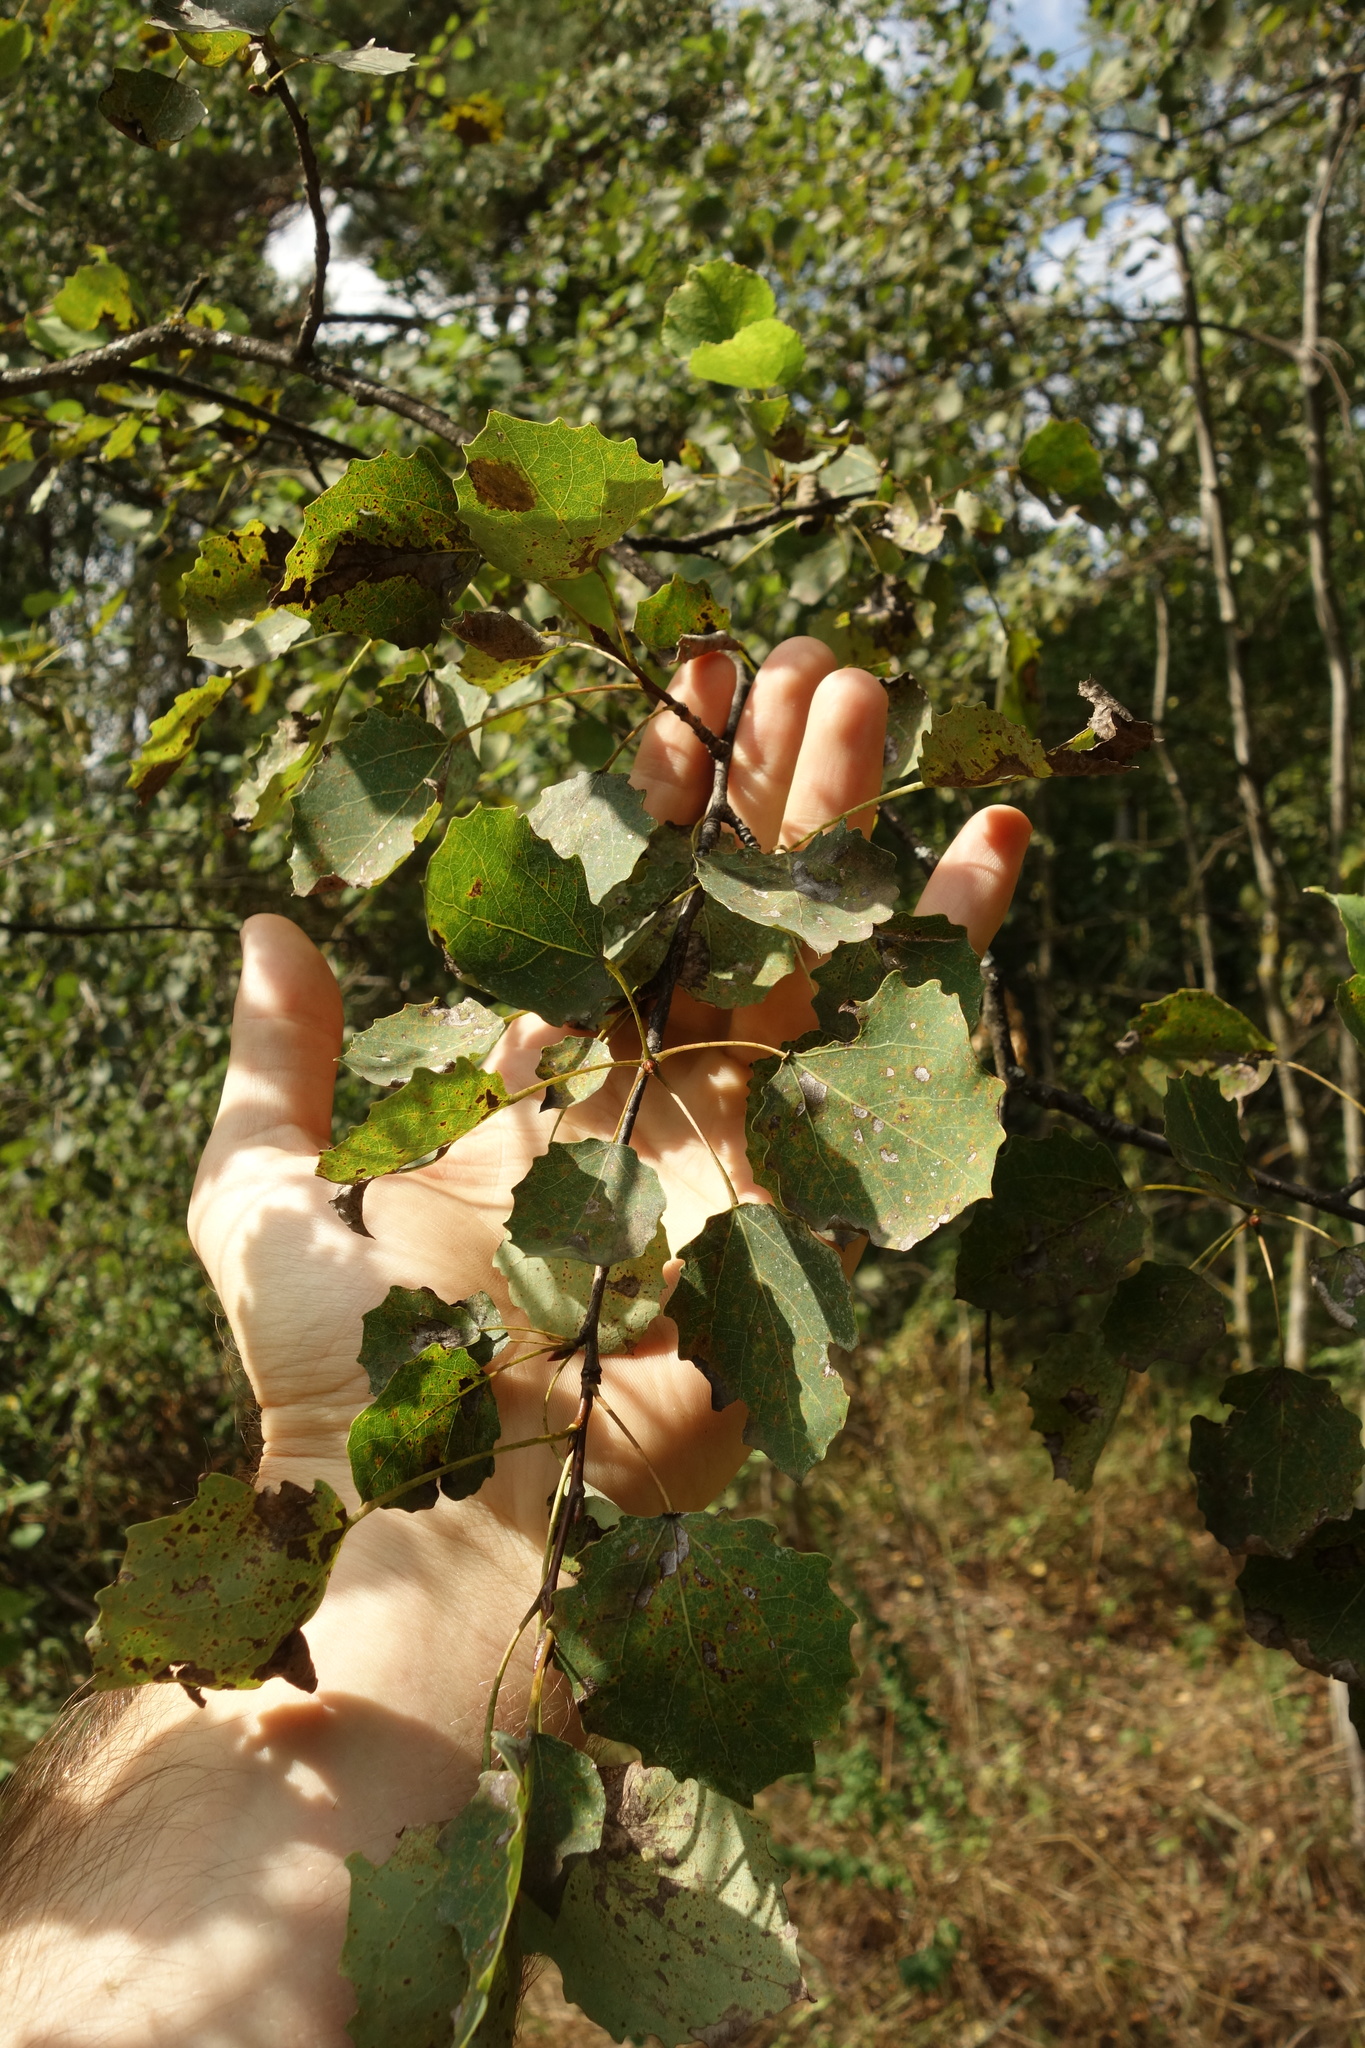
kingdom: Plantae
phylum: Tracheophyta
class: Magnoliopsida
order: Malpighiales
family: Salicaceae
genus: Populus
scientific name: Populus tremula
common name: European aspen
